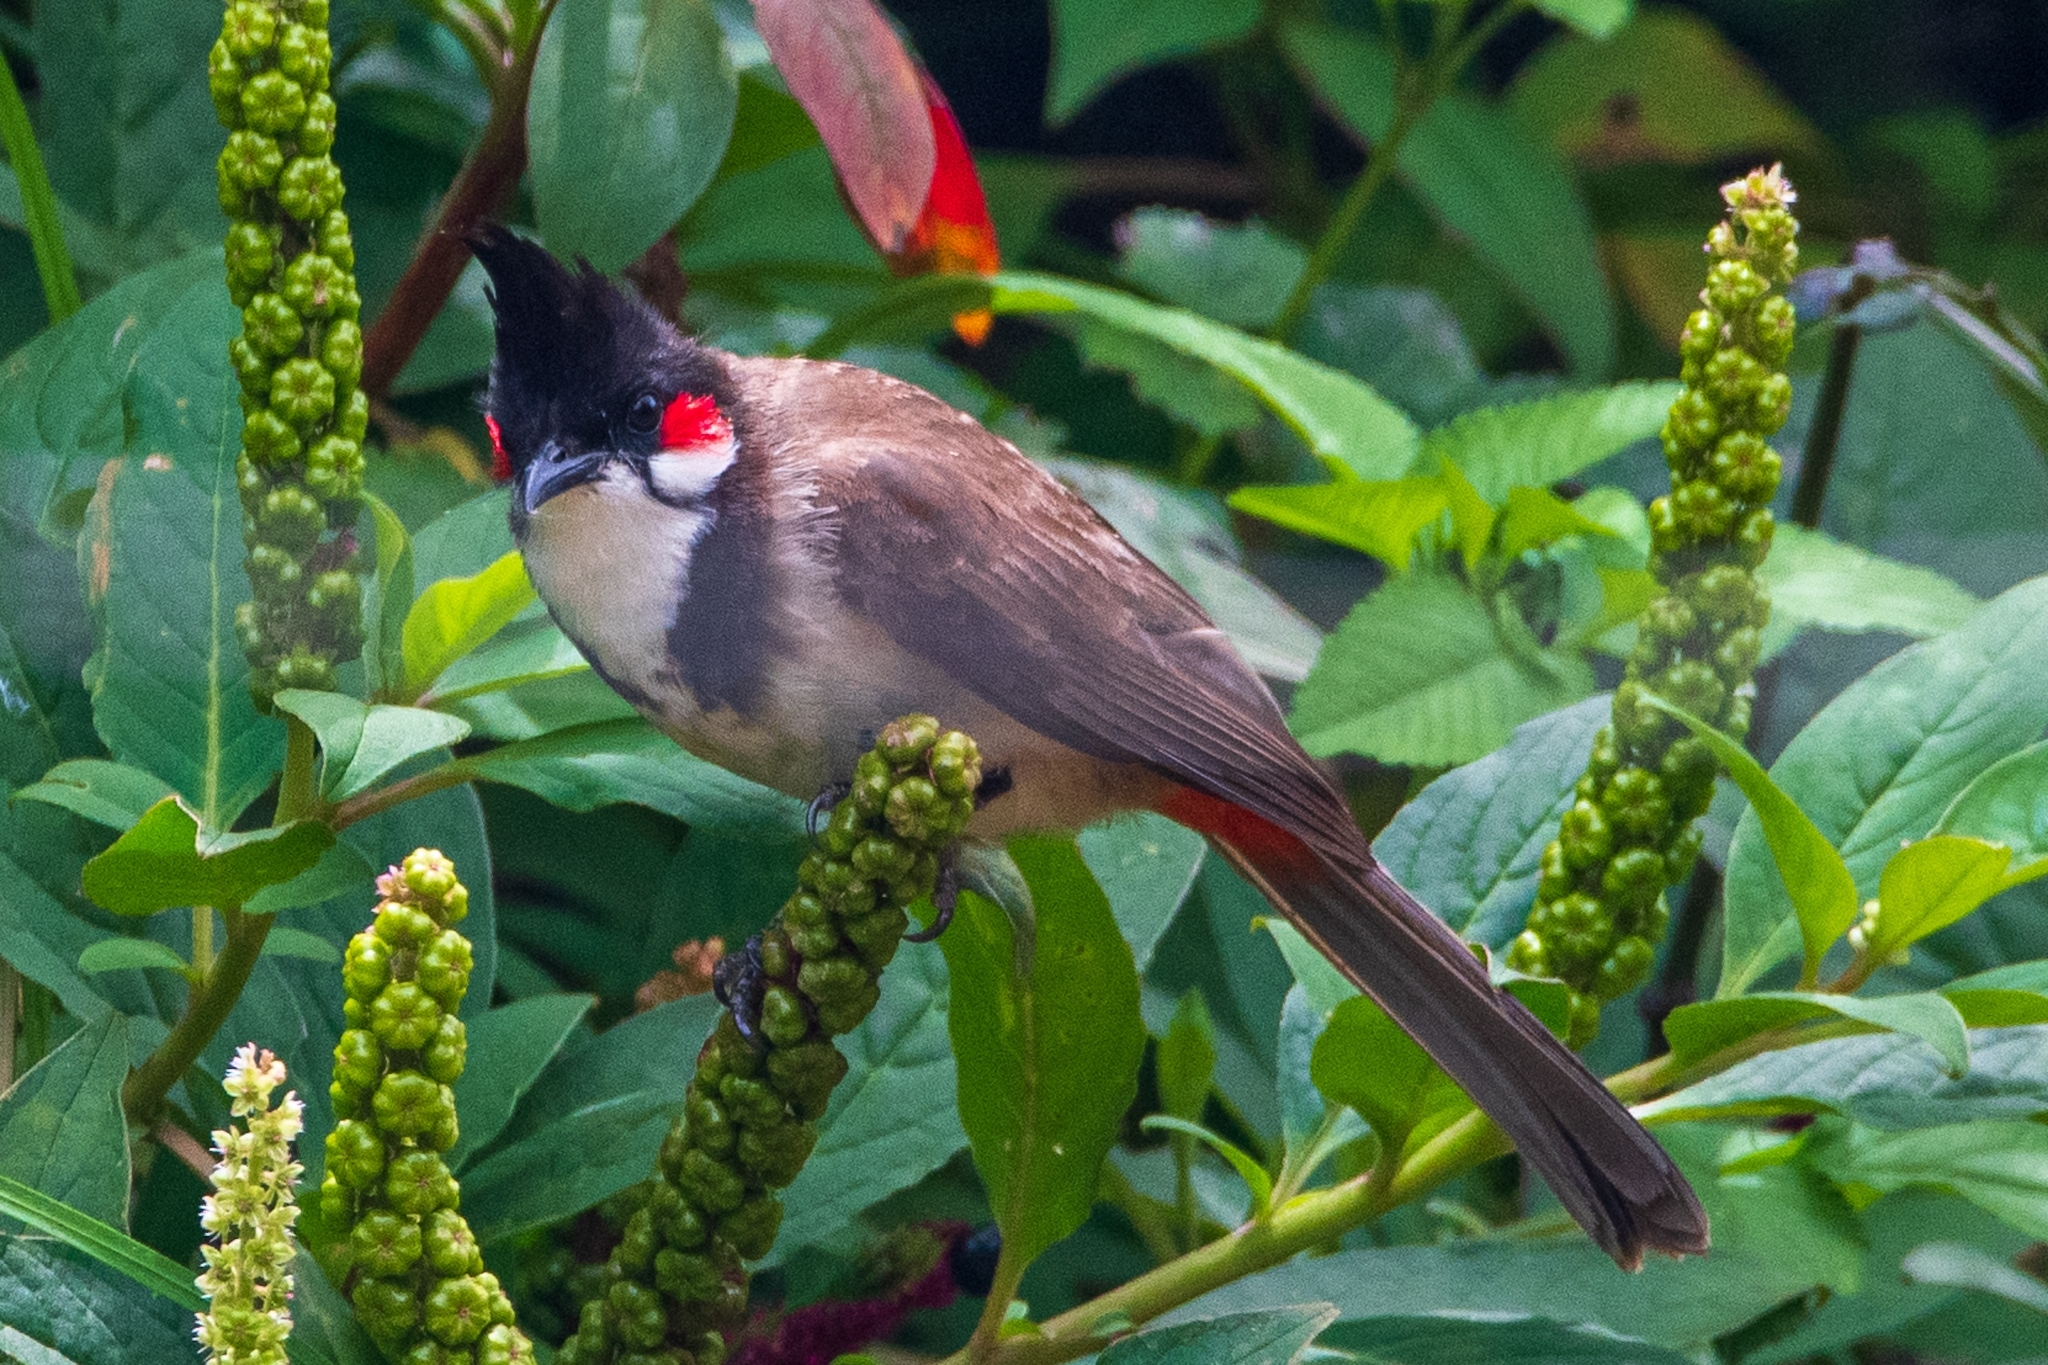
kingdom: Animalia
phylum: Chordata
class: Aves
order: Passeriformes
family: Pycnonotidae
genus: Pycnonotus
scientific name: Pycnonotus jocosus
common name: Red-whiskered bulbul
